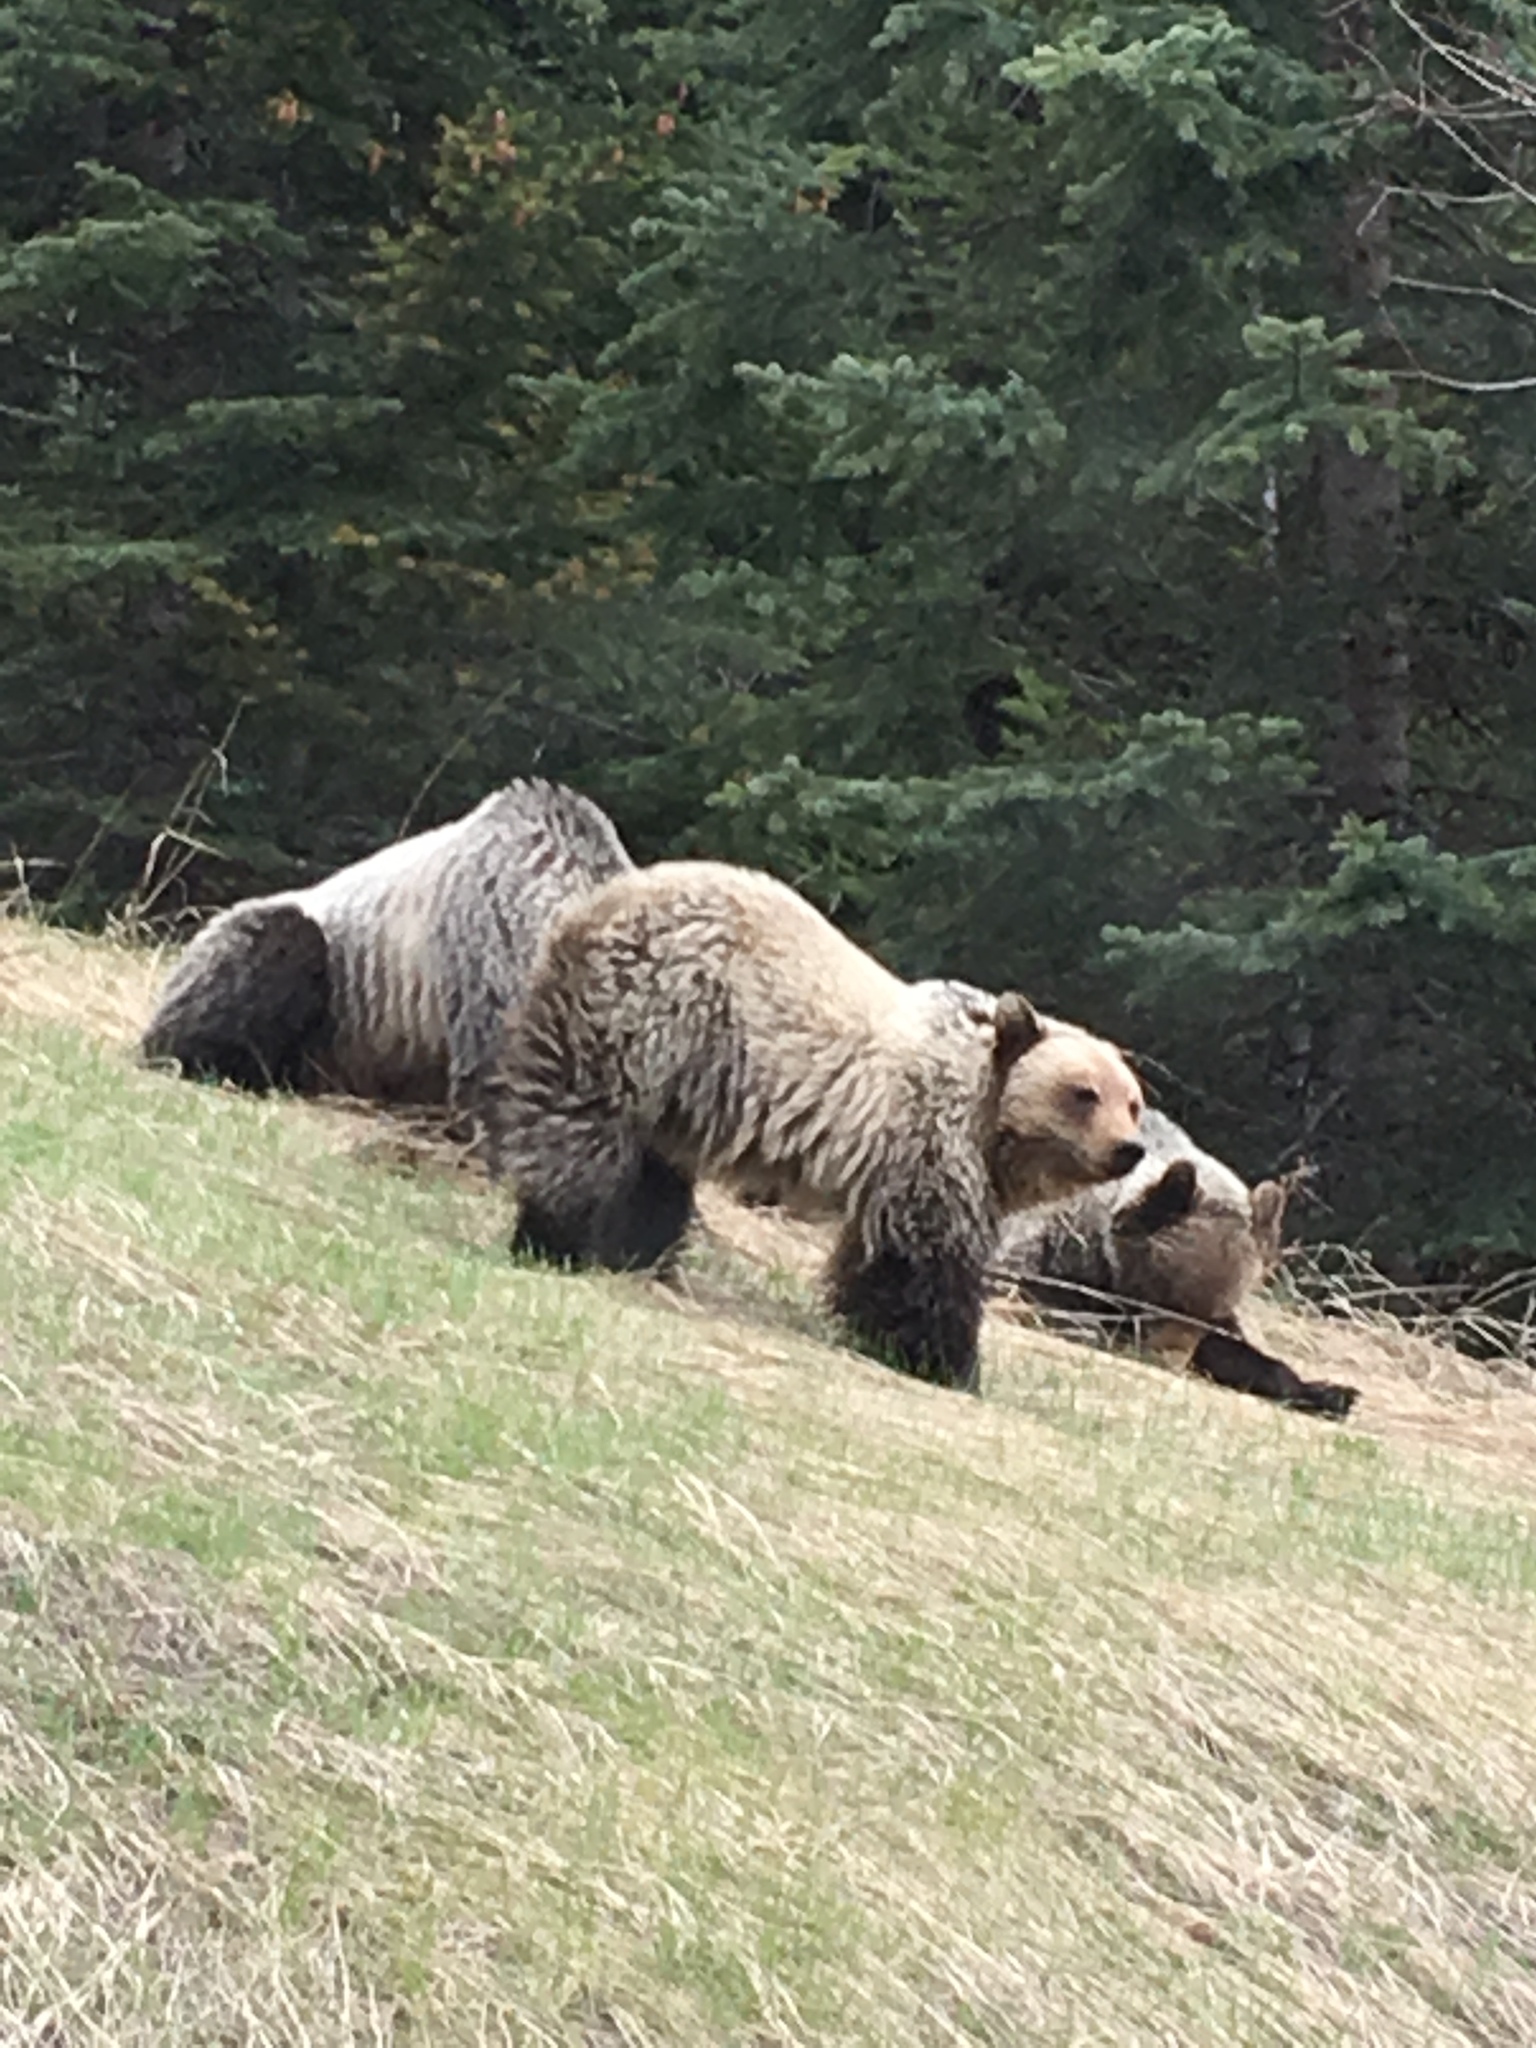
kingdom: Animalia
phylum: Chordata
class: Mammalia
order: Carnivora
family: Ursidae
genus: Ursus
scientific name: Ursus arctos
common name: Brown bear
